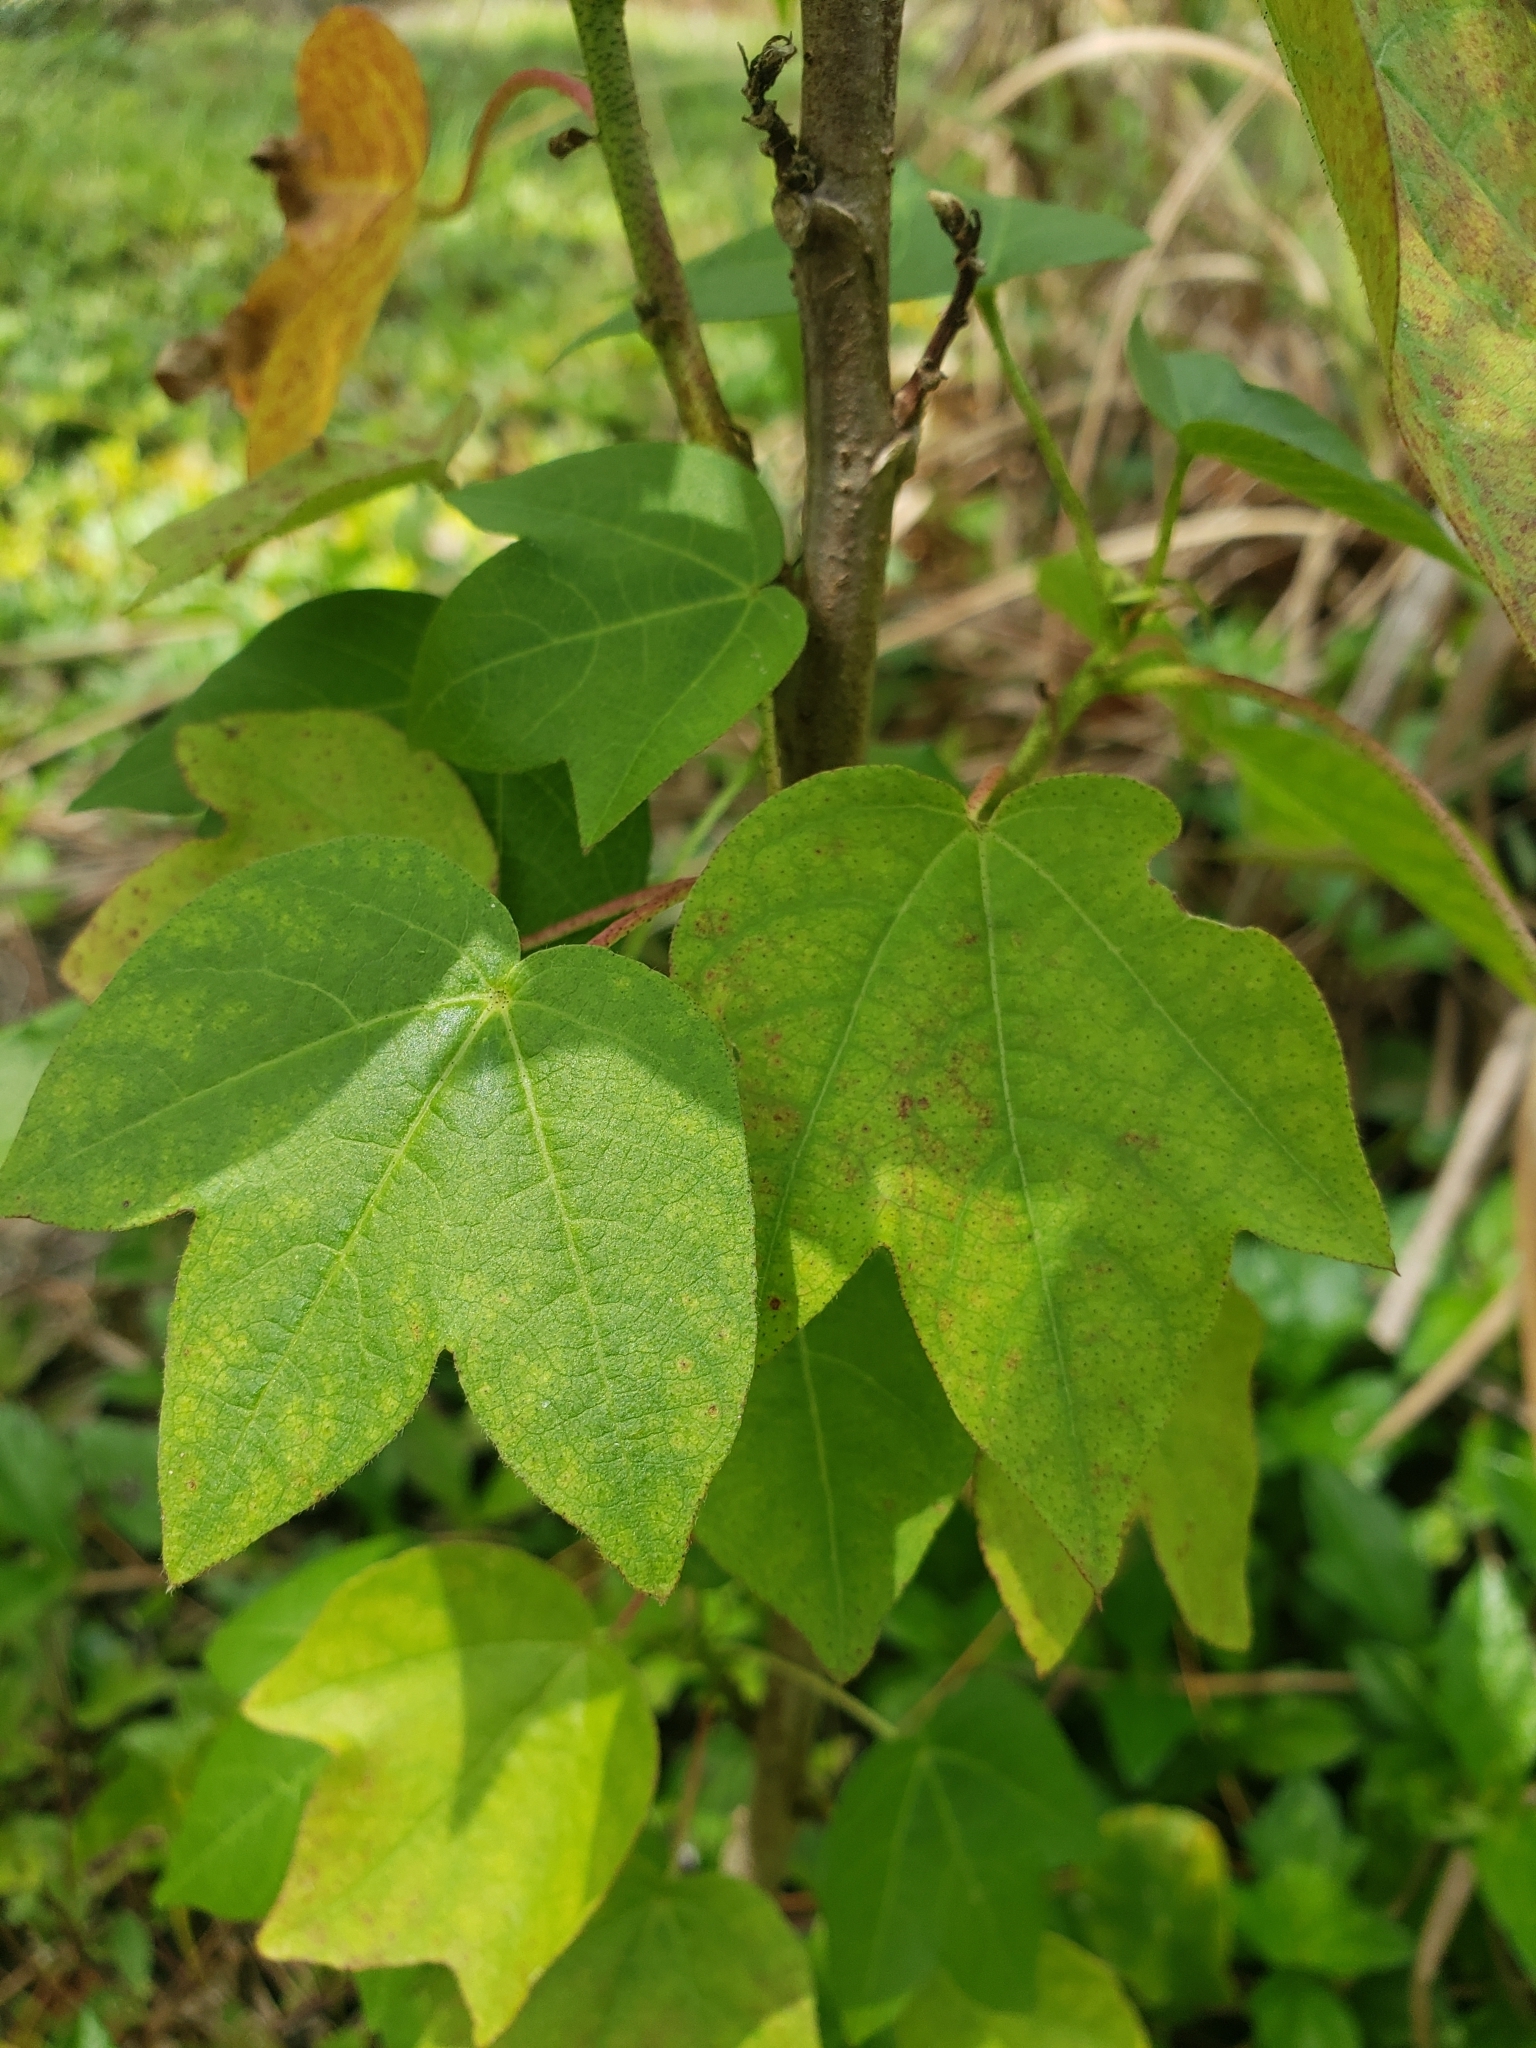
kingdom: Plantae
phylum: Tracheophyta
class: Magnoliopsida
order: Malvales
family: Malvaceae
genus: Gossypium
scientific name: Gossypium hirsutum
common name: Cotton
